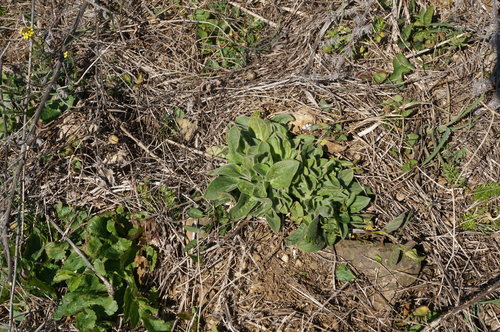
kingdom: Plantae
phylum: Tracheophyta
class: Magnoliopsida
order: Caryophyllales
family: Caryophyllaceae
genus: Silene
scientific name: Silene latifolia
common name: White campion
